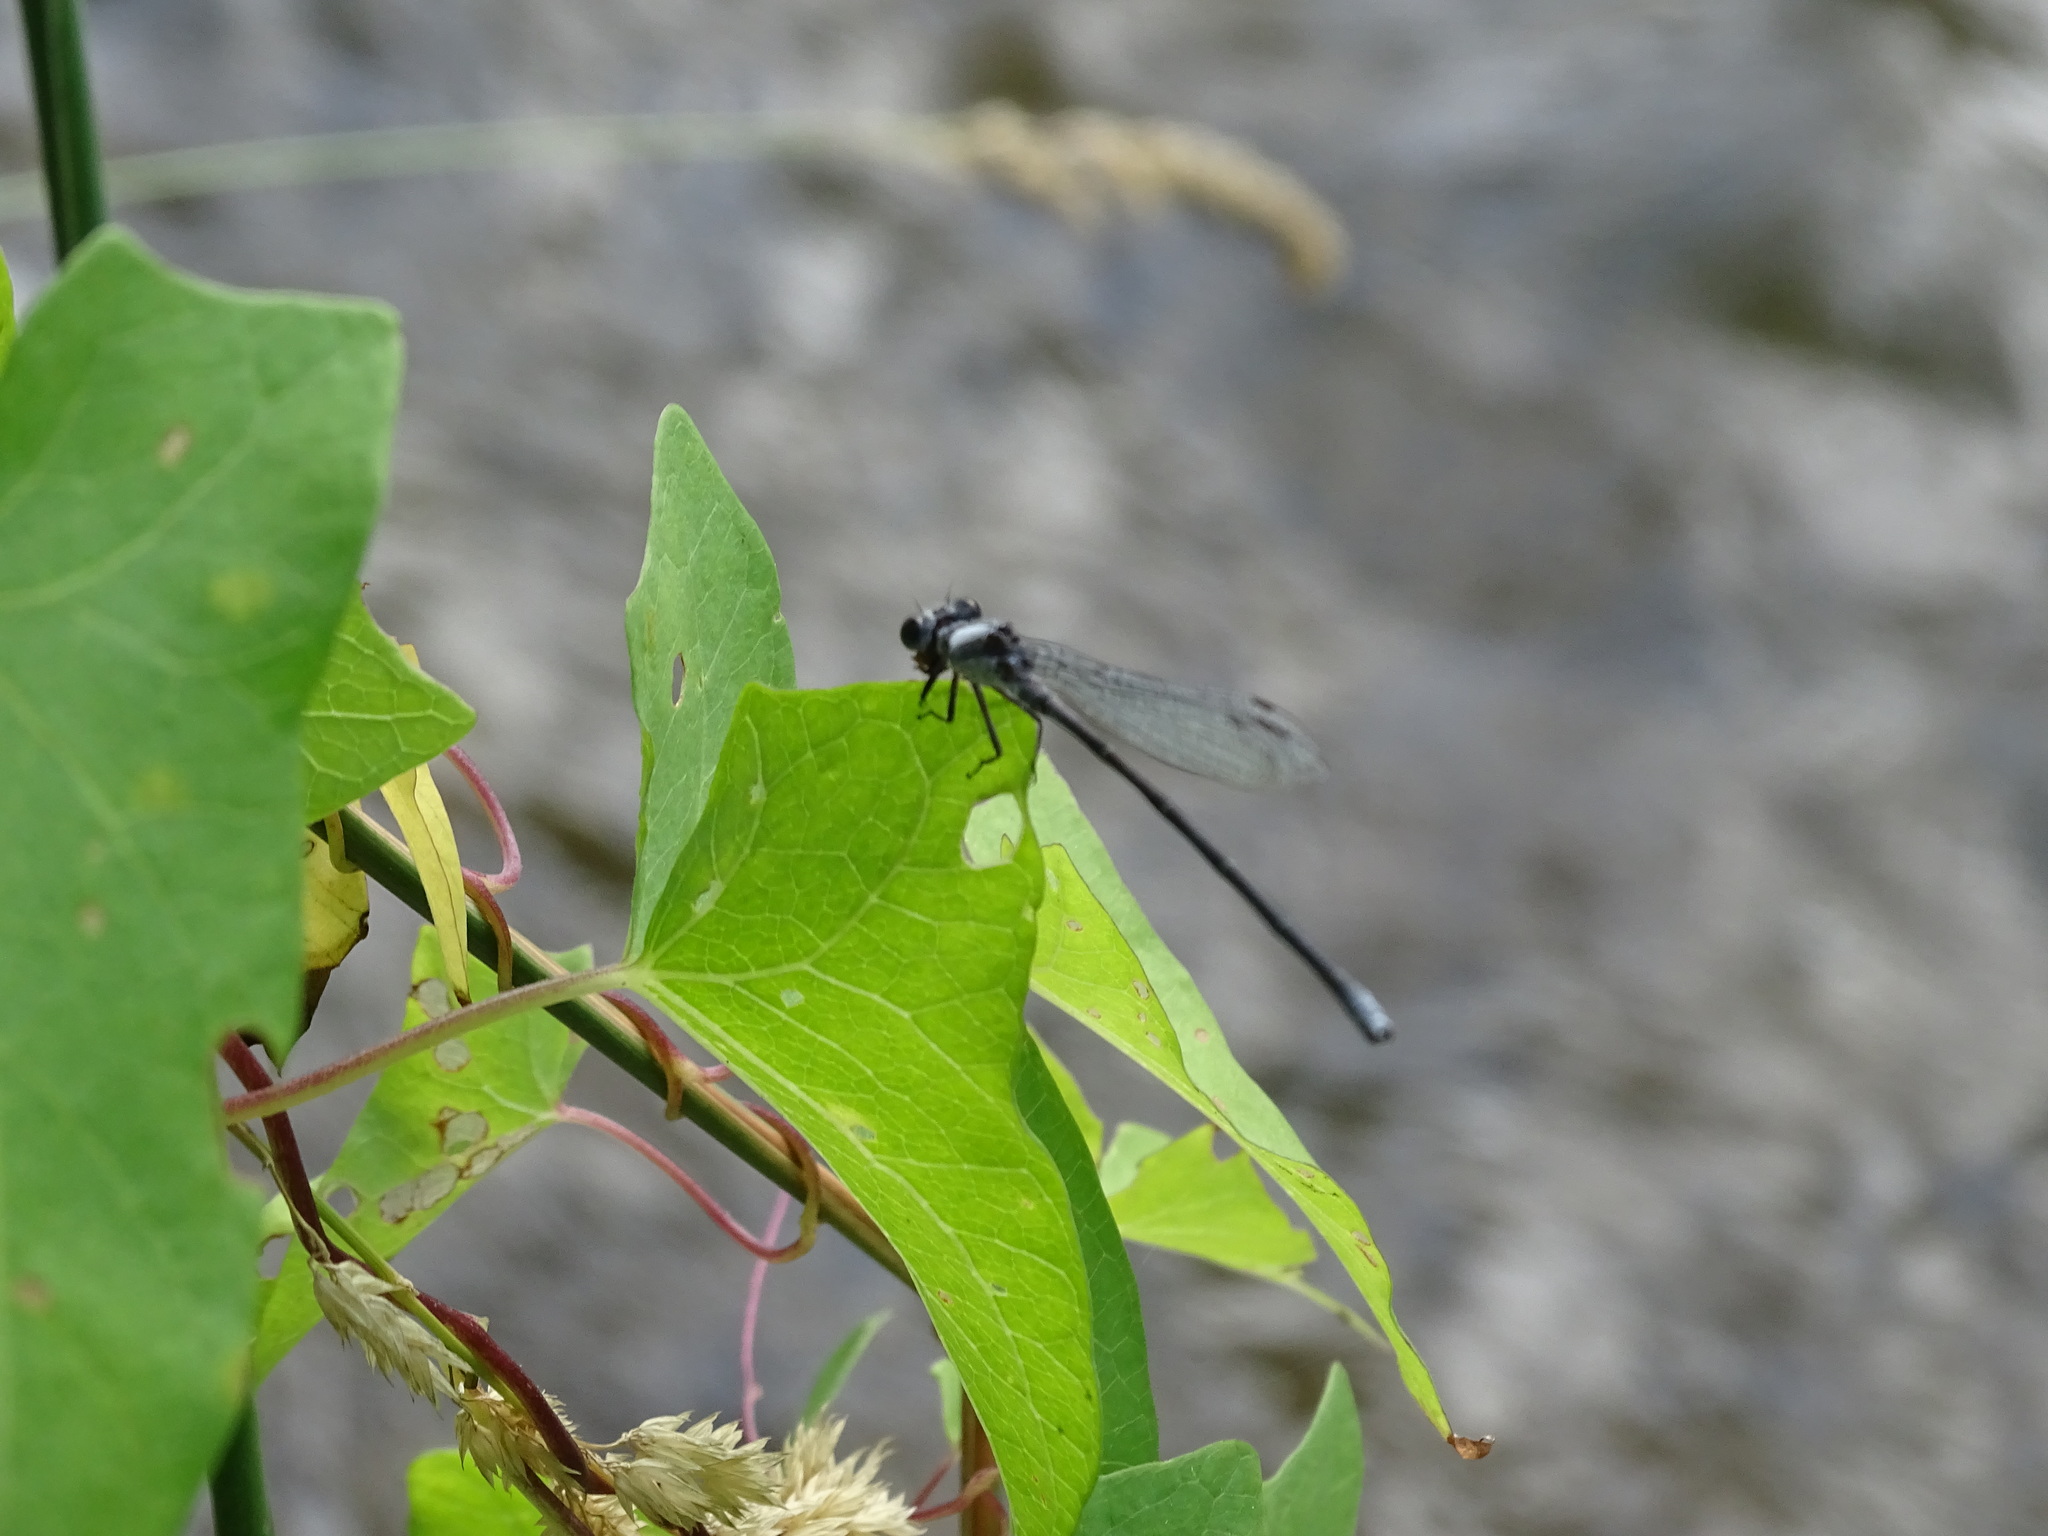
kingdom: Animalia
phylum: Arthropoda
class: Insecta
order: Odonata
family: Coenagrionidae
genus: Argia
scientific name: Argia moesta
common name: Powdered dancer
